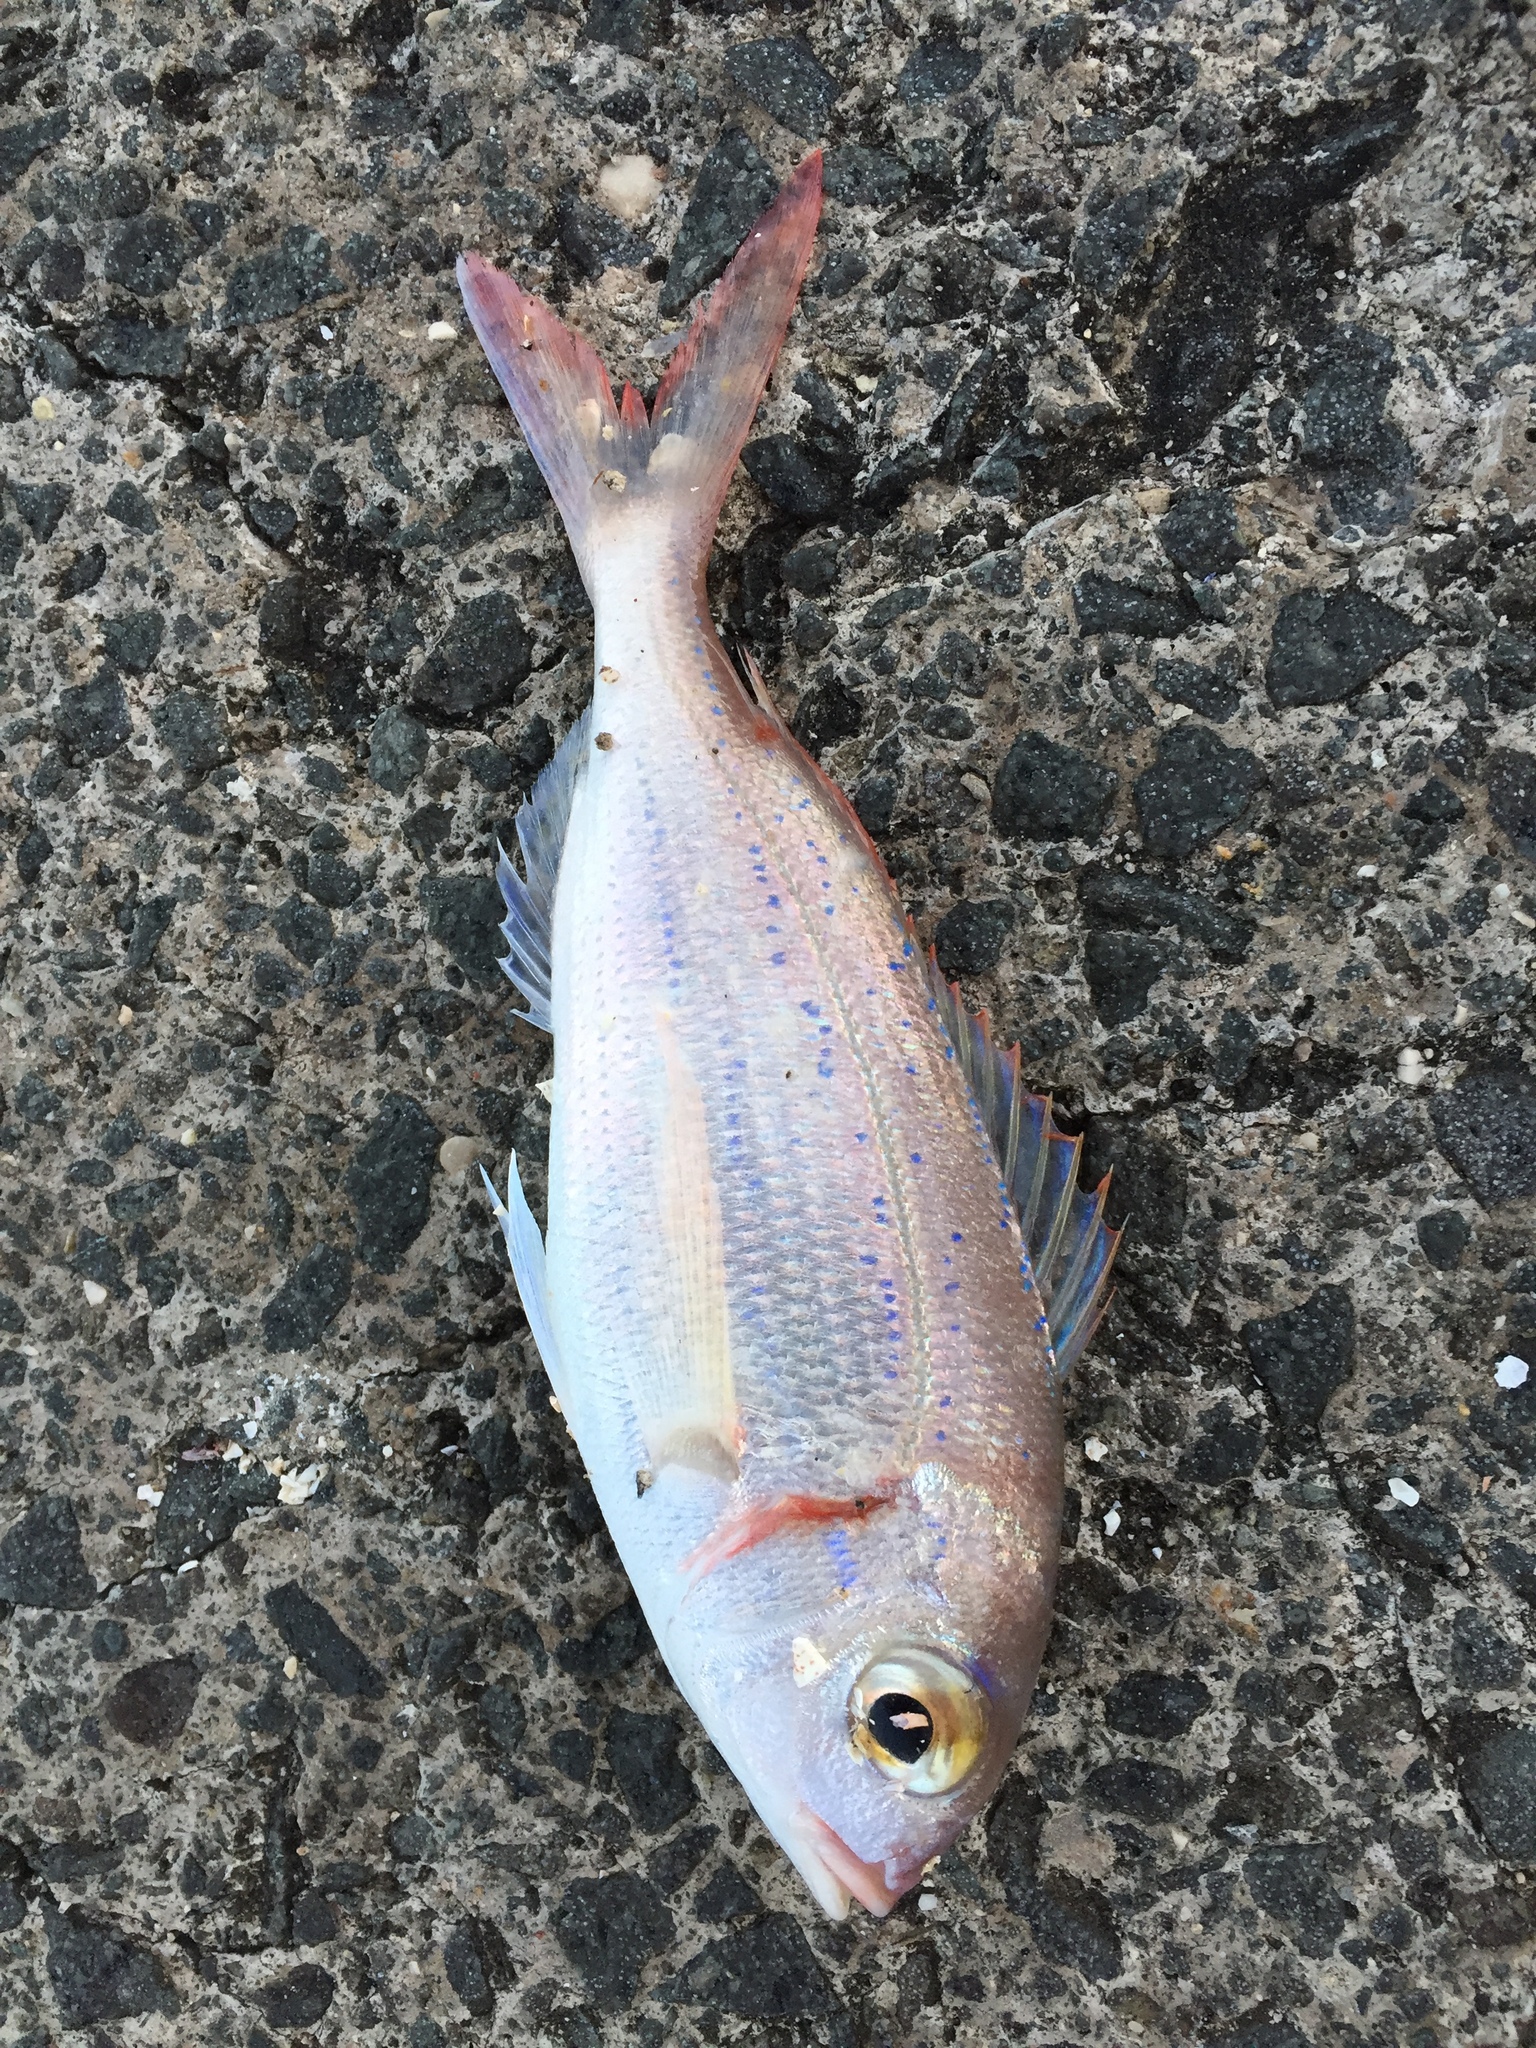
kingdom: Animalia
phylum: Chordata
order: Perciformes
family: Sparidae
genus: Pagellus
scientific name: Pagellus erythrinus
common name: Pandora
